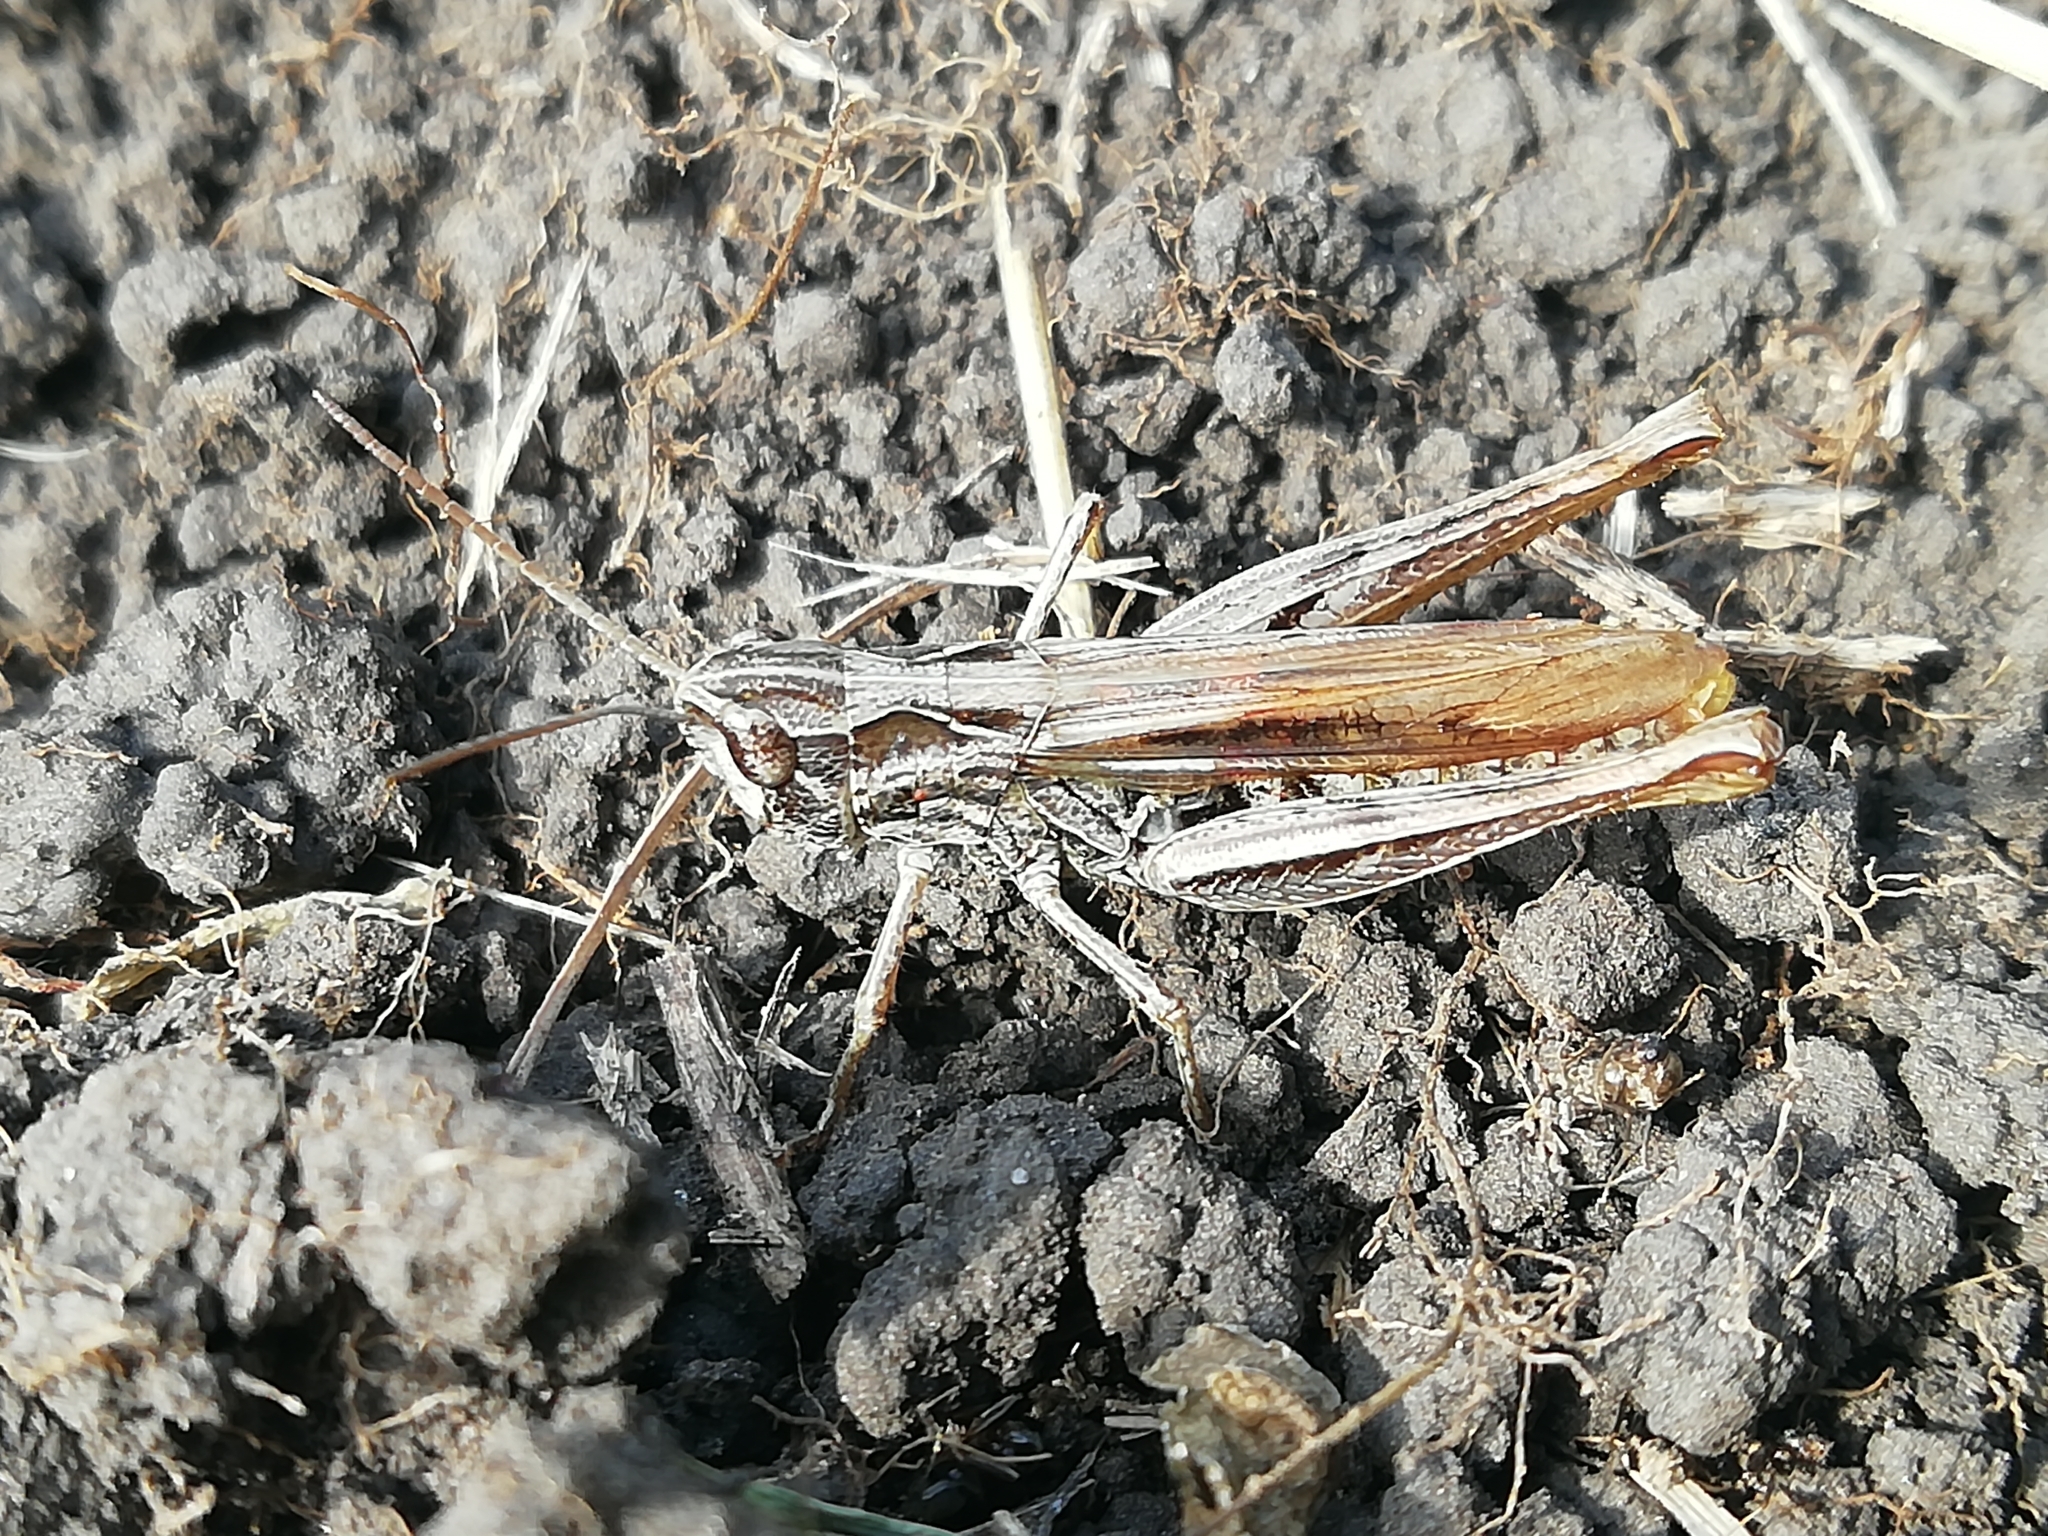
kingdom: Animalia
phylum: Arthropoda
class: Insecta
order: Orthoptera
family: Acrididae
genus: Chorthippus
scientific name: Chorthippus apricarius
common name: Upland field grasshopper
